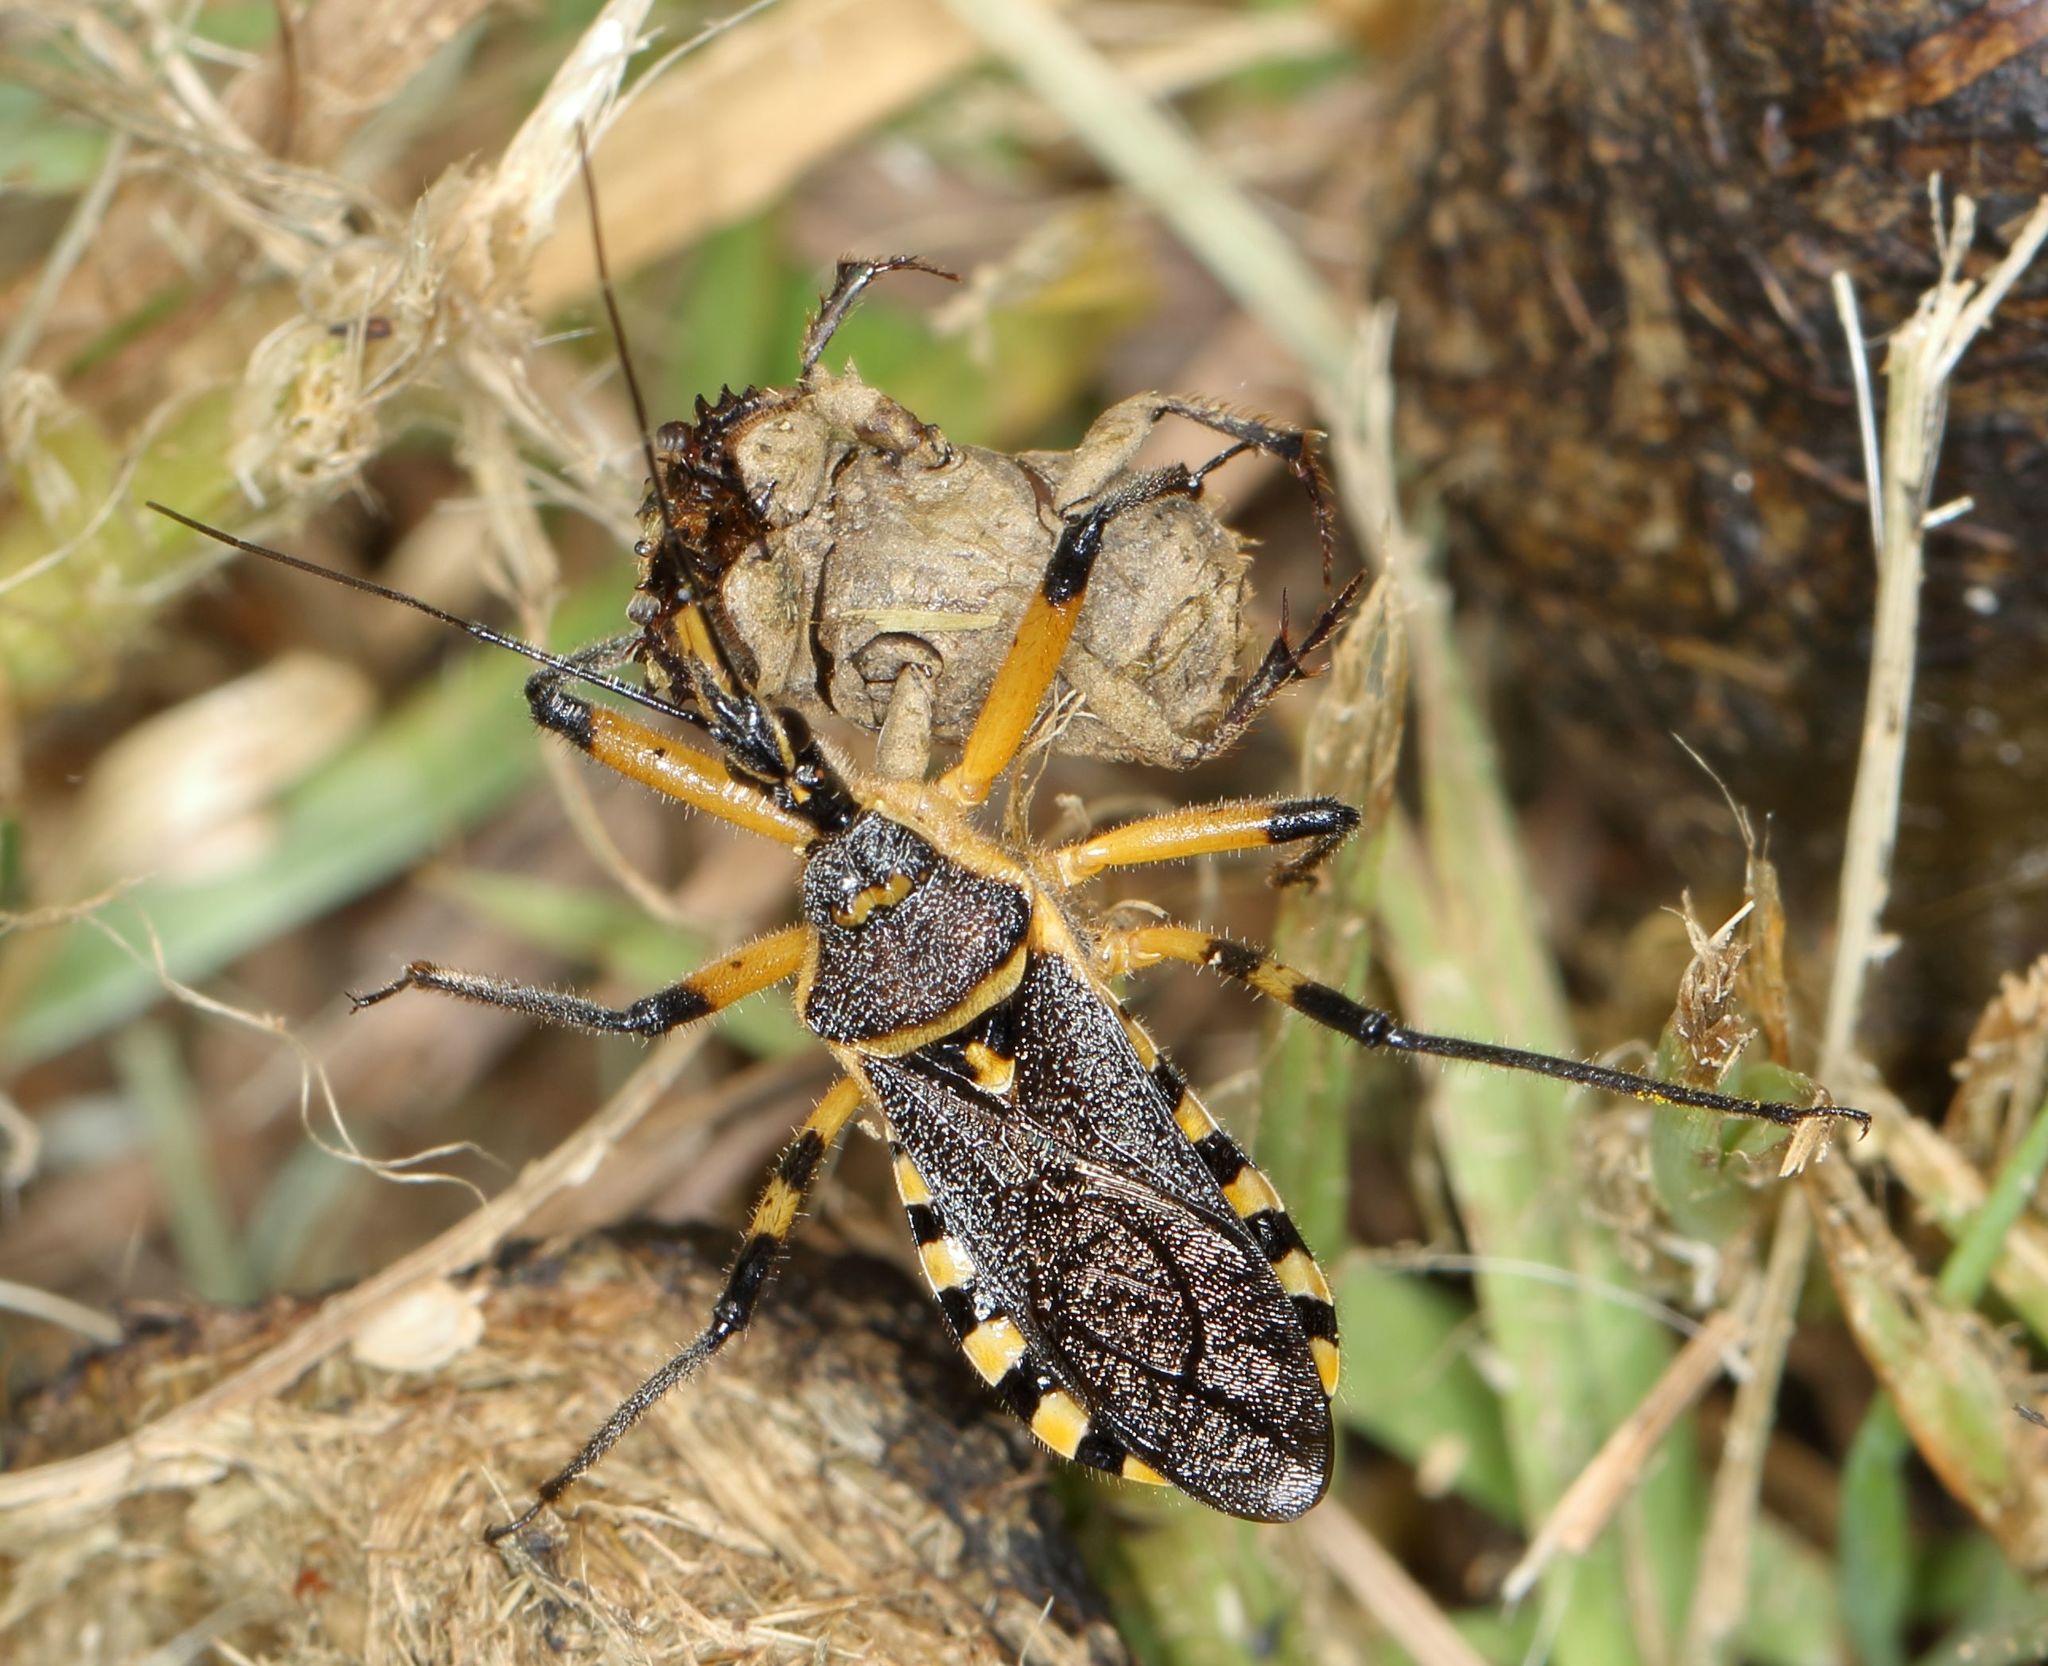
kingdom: Animalia
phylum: Arthropoda
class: Insecta
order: Hemiptera
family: Reduviidae
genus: Rhynocoris
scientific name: Rhynocoris violentus
